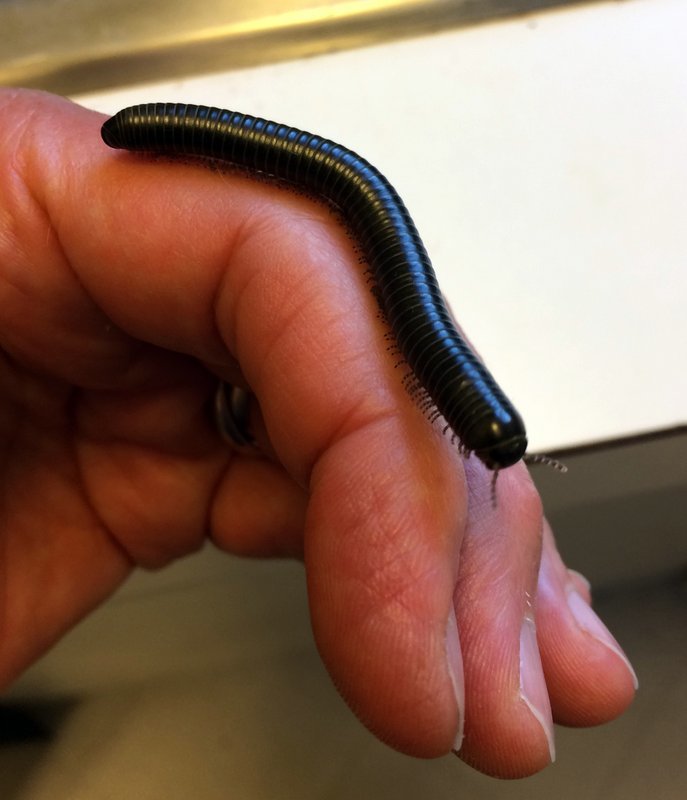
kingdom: Animalia
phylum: Arthropoda
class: Diplopoda
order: Spirobolida
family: Spirobolidae
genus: Tylobolus
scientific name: Tylobolus uncigerus
